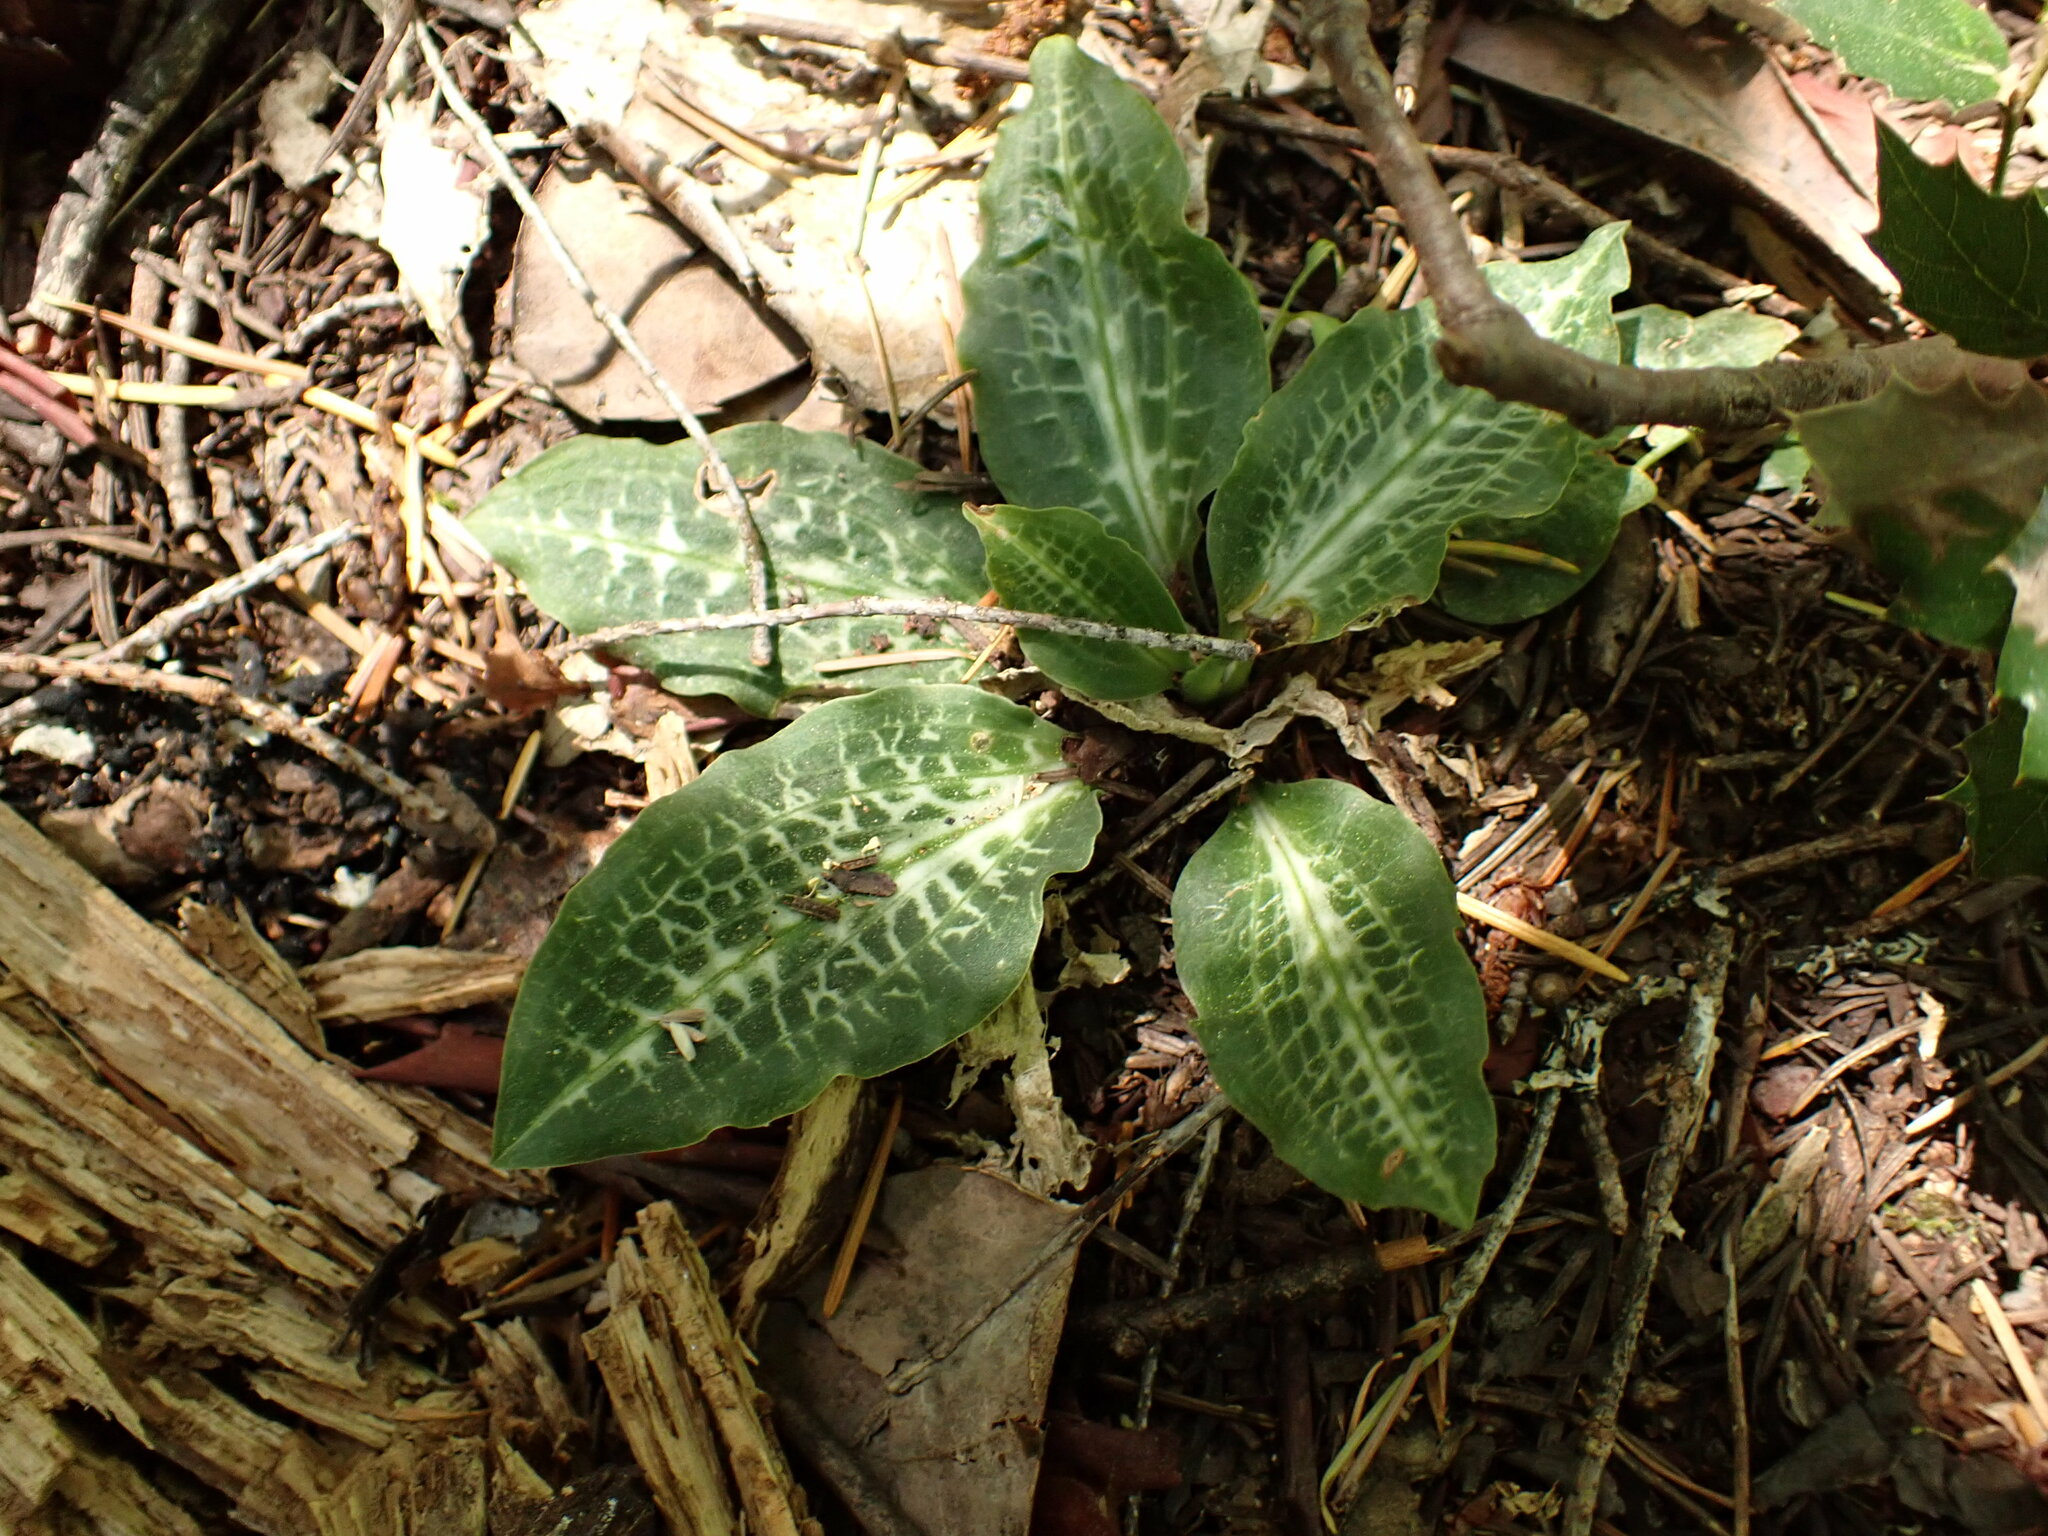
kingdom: Plantae
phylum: Tracheophyta
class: Liliopsida
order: Asparagales
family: Orchidaceae
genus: Goodyera
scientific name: Goodyera oblongifolia
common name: Giant rattlesnake-plantain
